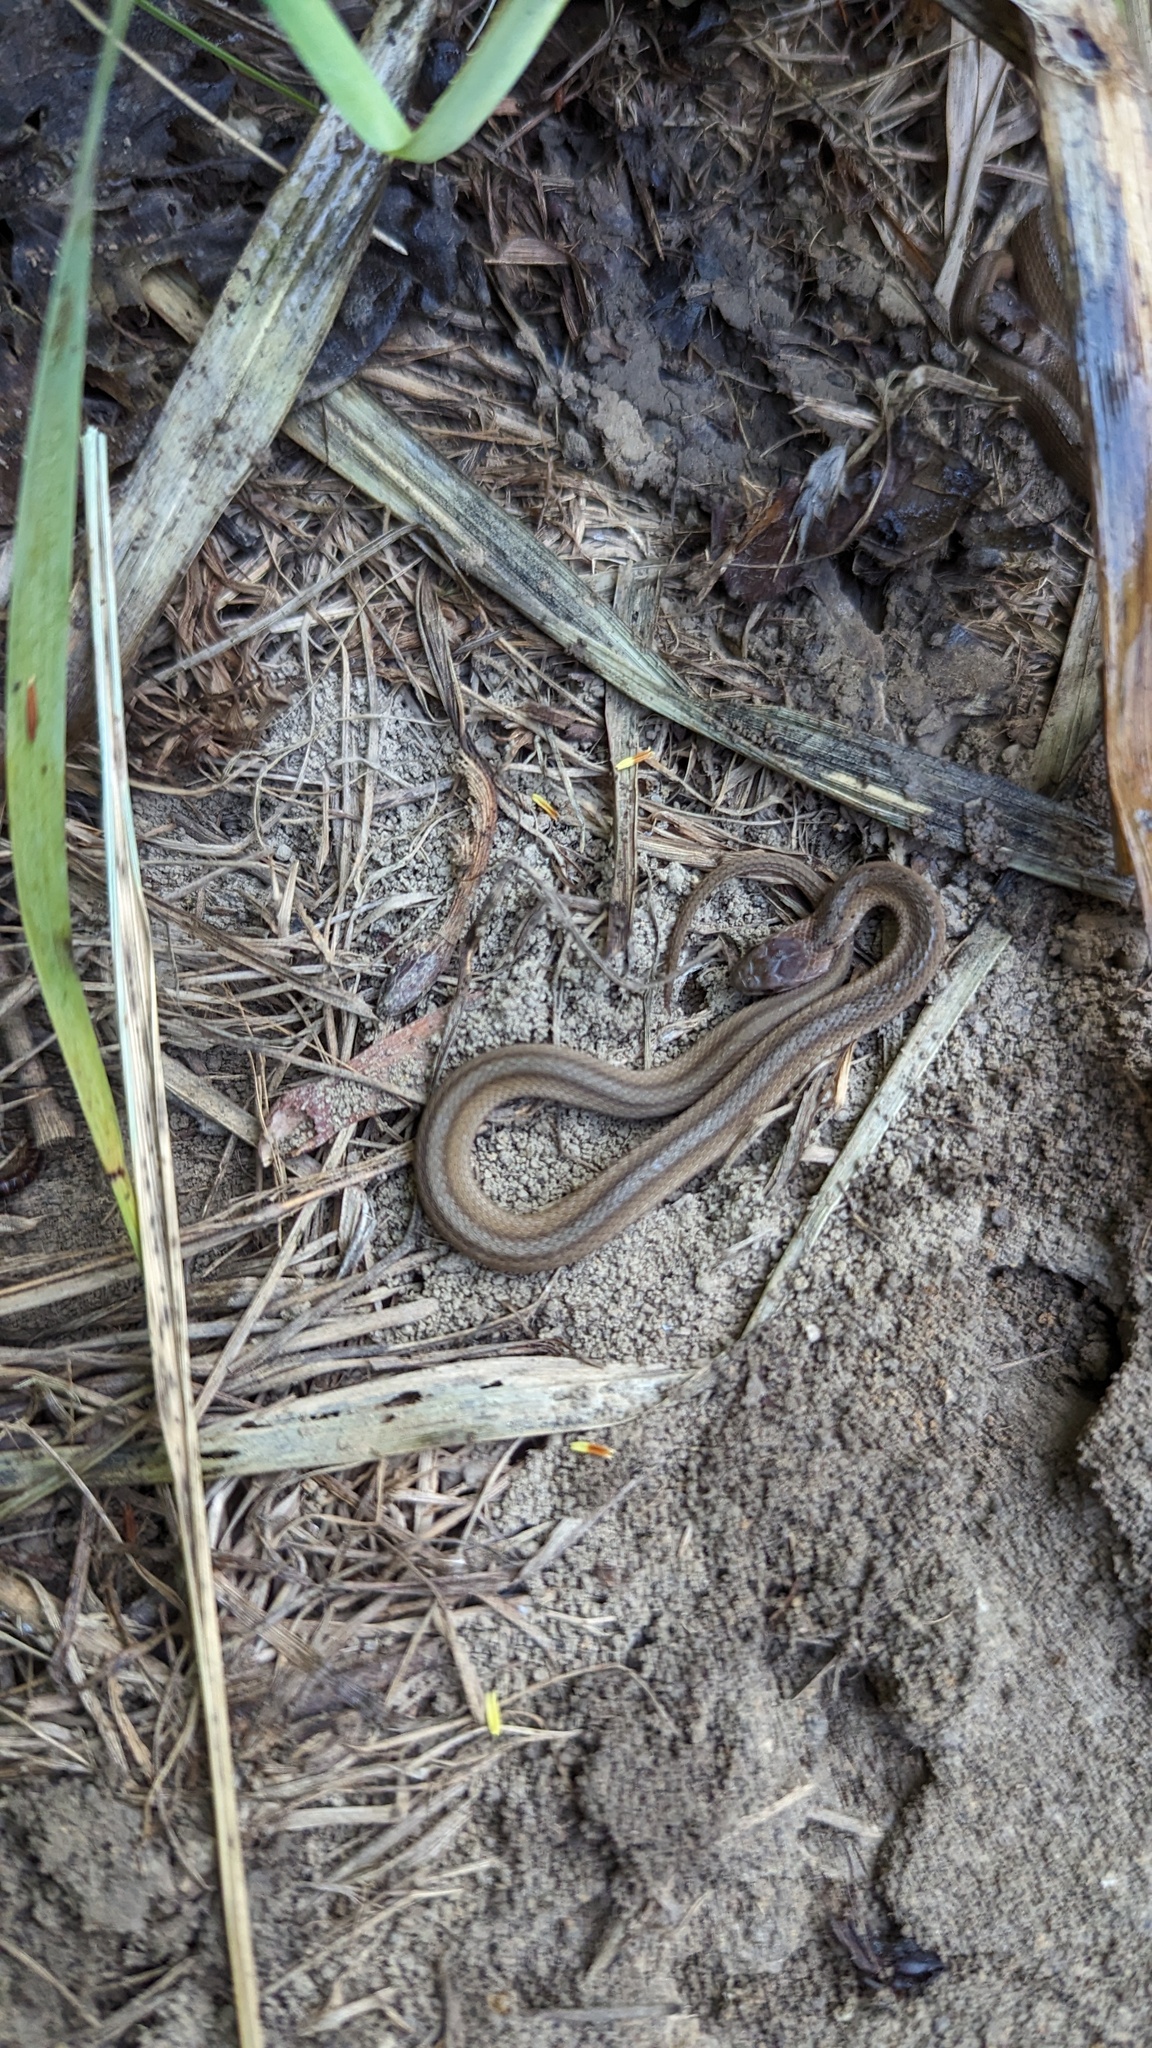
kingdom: Animalia
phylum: Chordata
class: Squamata
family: Colubridae
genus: Storeria
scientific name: Storeria dekayi
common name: (dekay’s) brown snake
